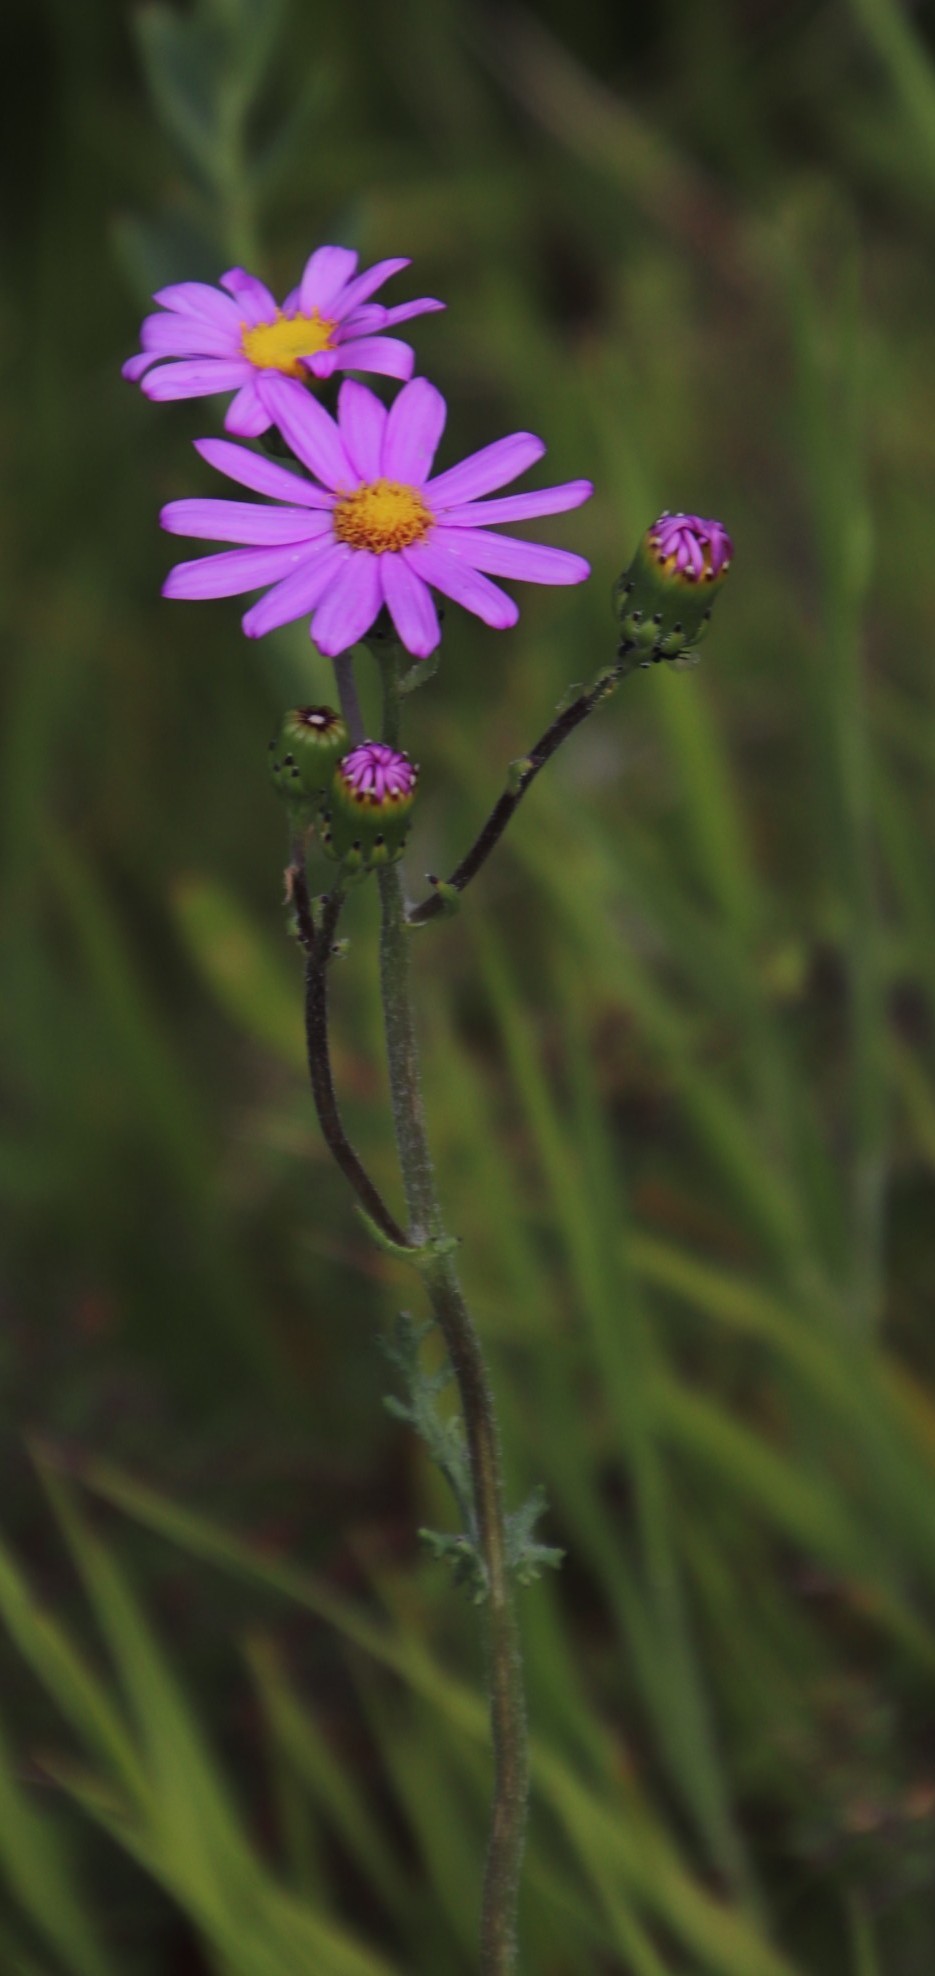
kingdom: Plantae
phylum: Tracheophyta
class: Magnoliopsida
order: Asterales
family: Asteraceae
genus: Senecio
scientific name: Senecio elegans
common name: Purple groundsel
